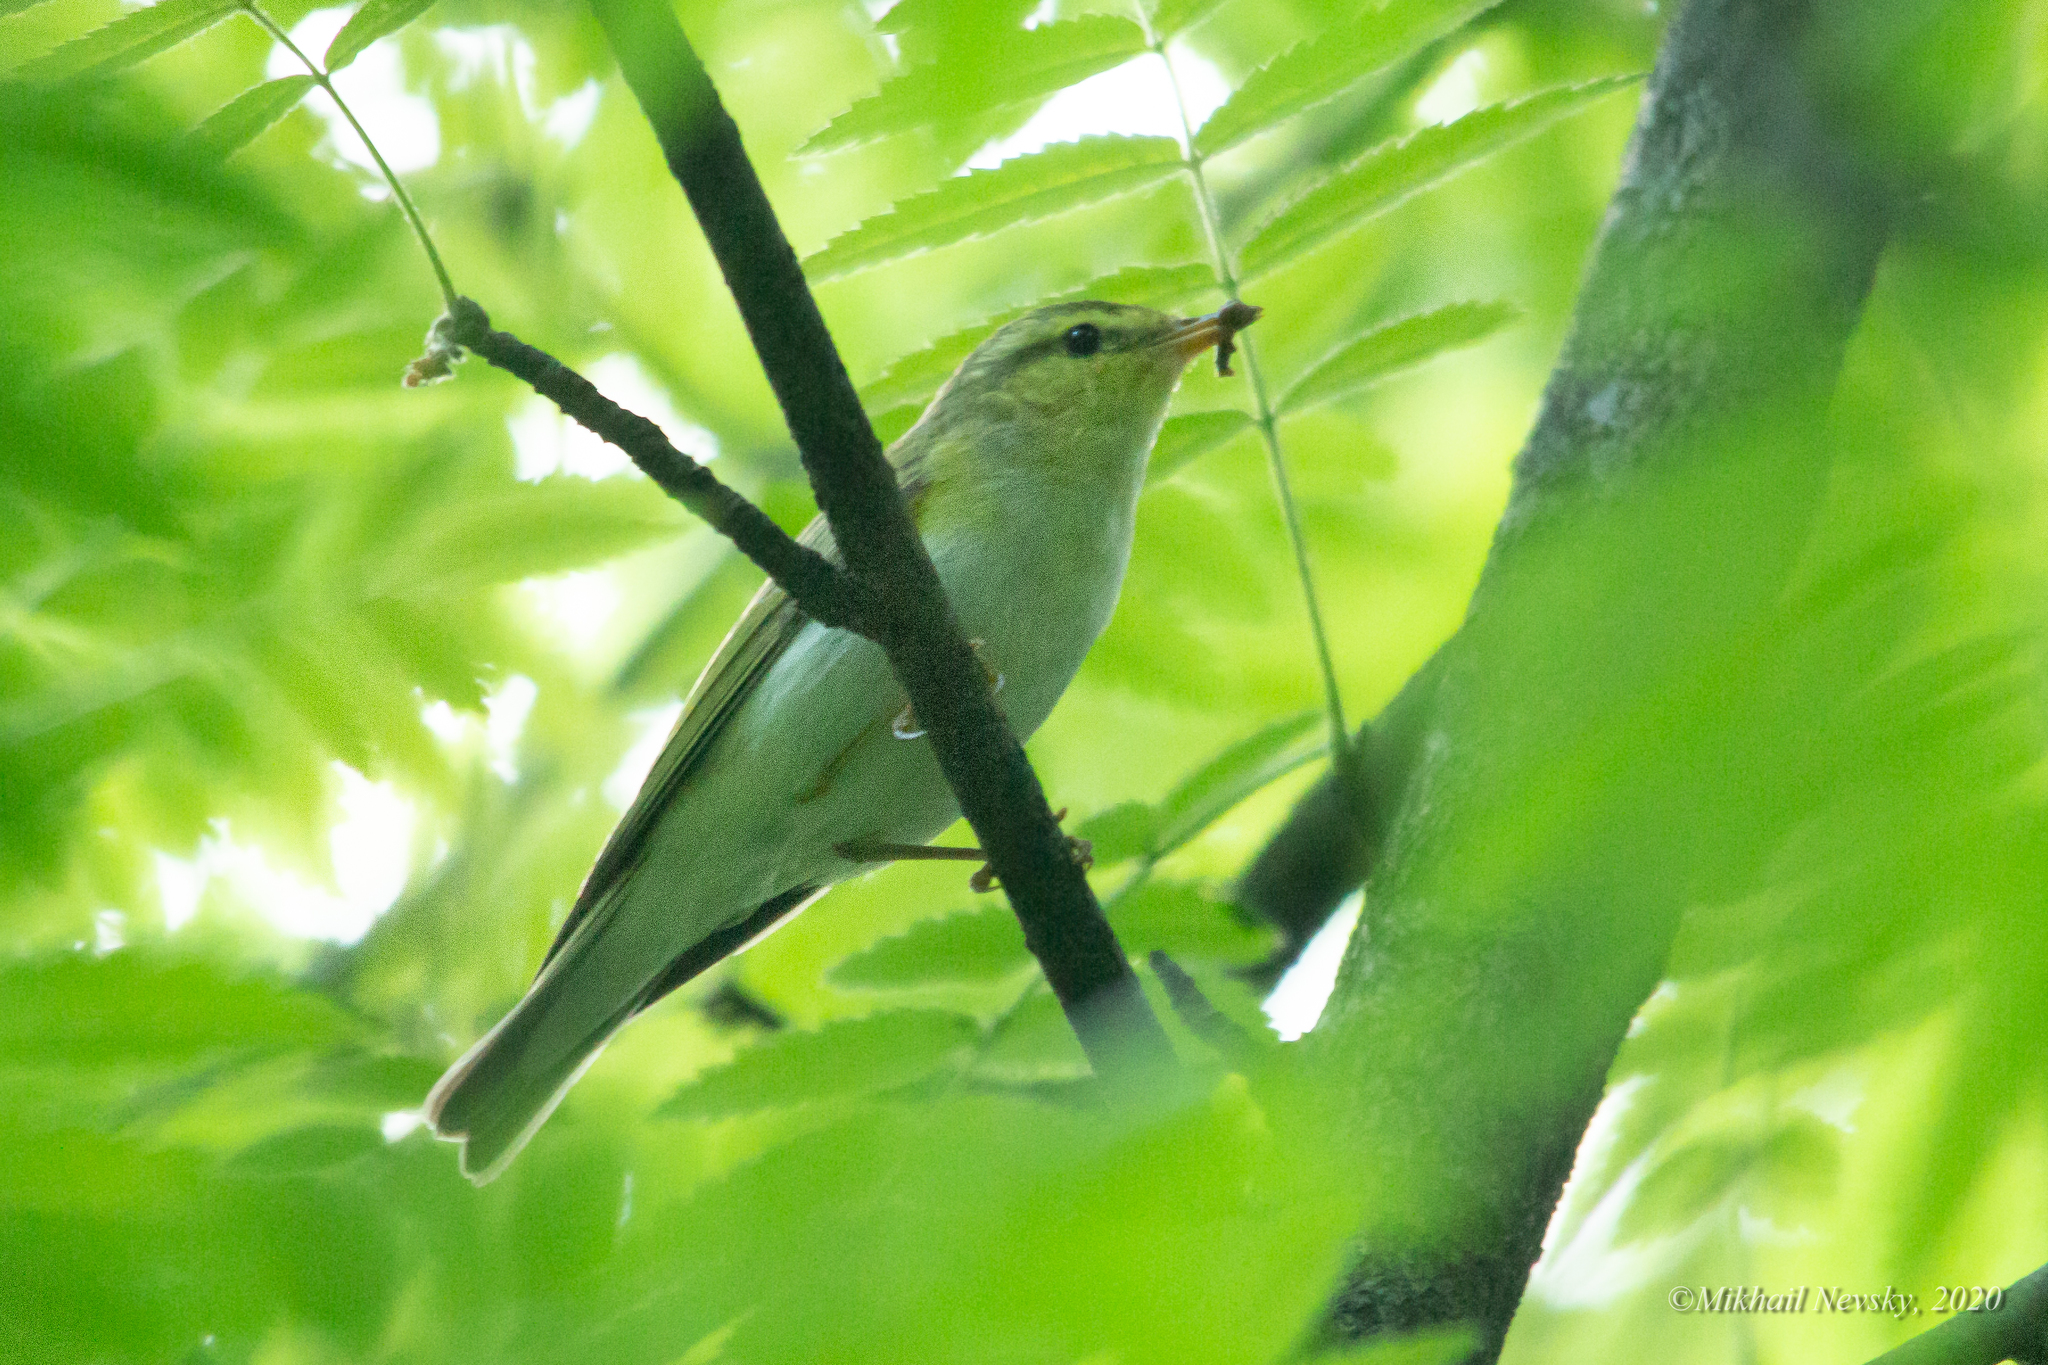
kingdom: Animalia
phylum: Chordata
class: Aves
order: Passeriformes
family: Phylloscopidae
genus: Phylloscopus
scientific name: Phylloscopus sibillatrix
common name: Wood warbler
